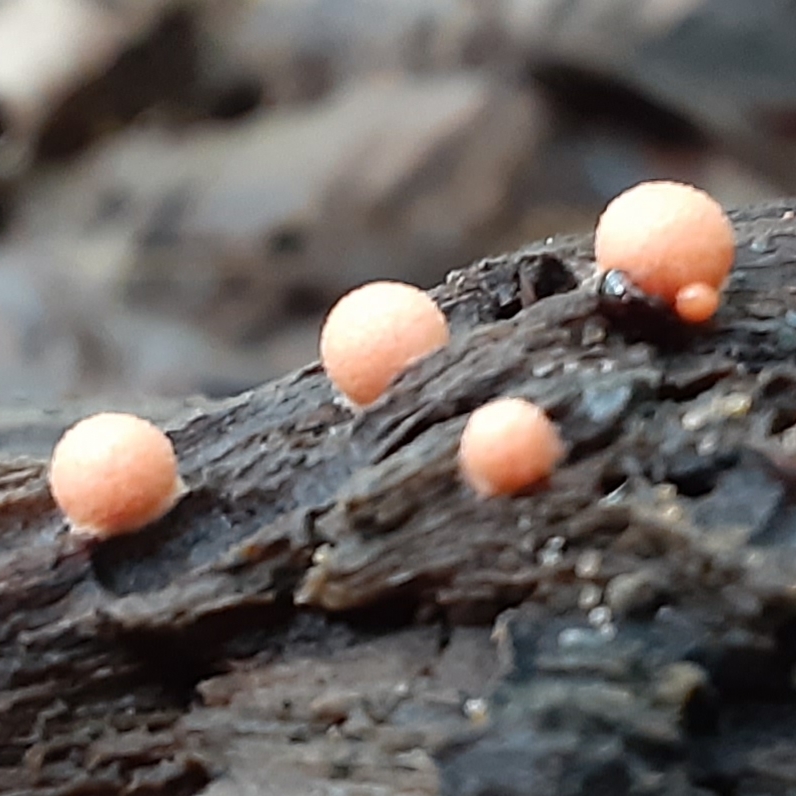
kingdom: Protozoa
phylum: Mycetozoa
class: Myxomycetes
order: Cribrariales
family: Tubiferaceae
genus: Lycogala
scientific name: Lycogala epidendrum
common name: Wolf's milk
